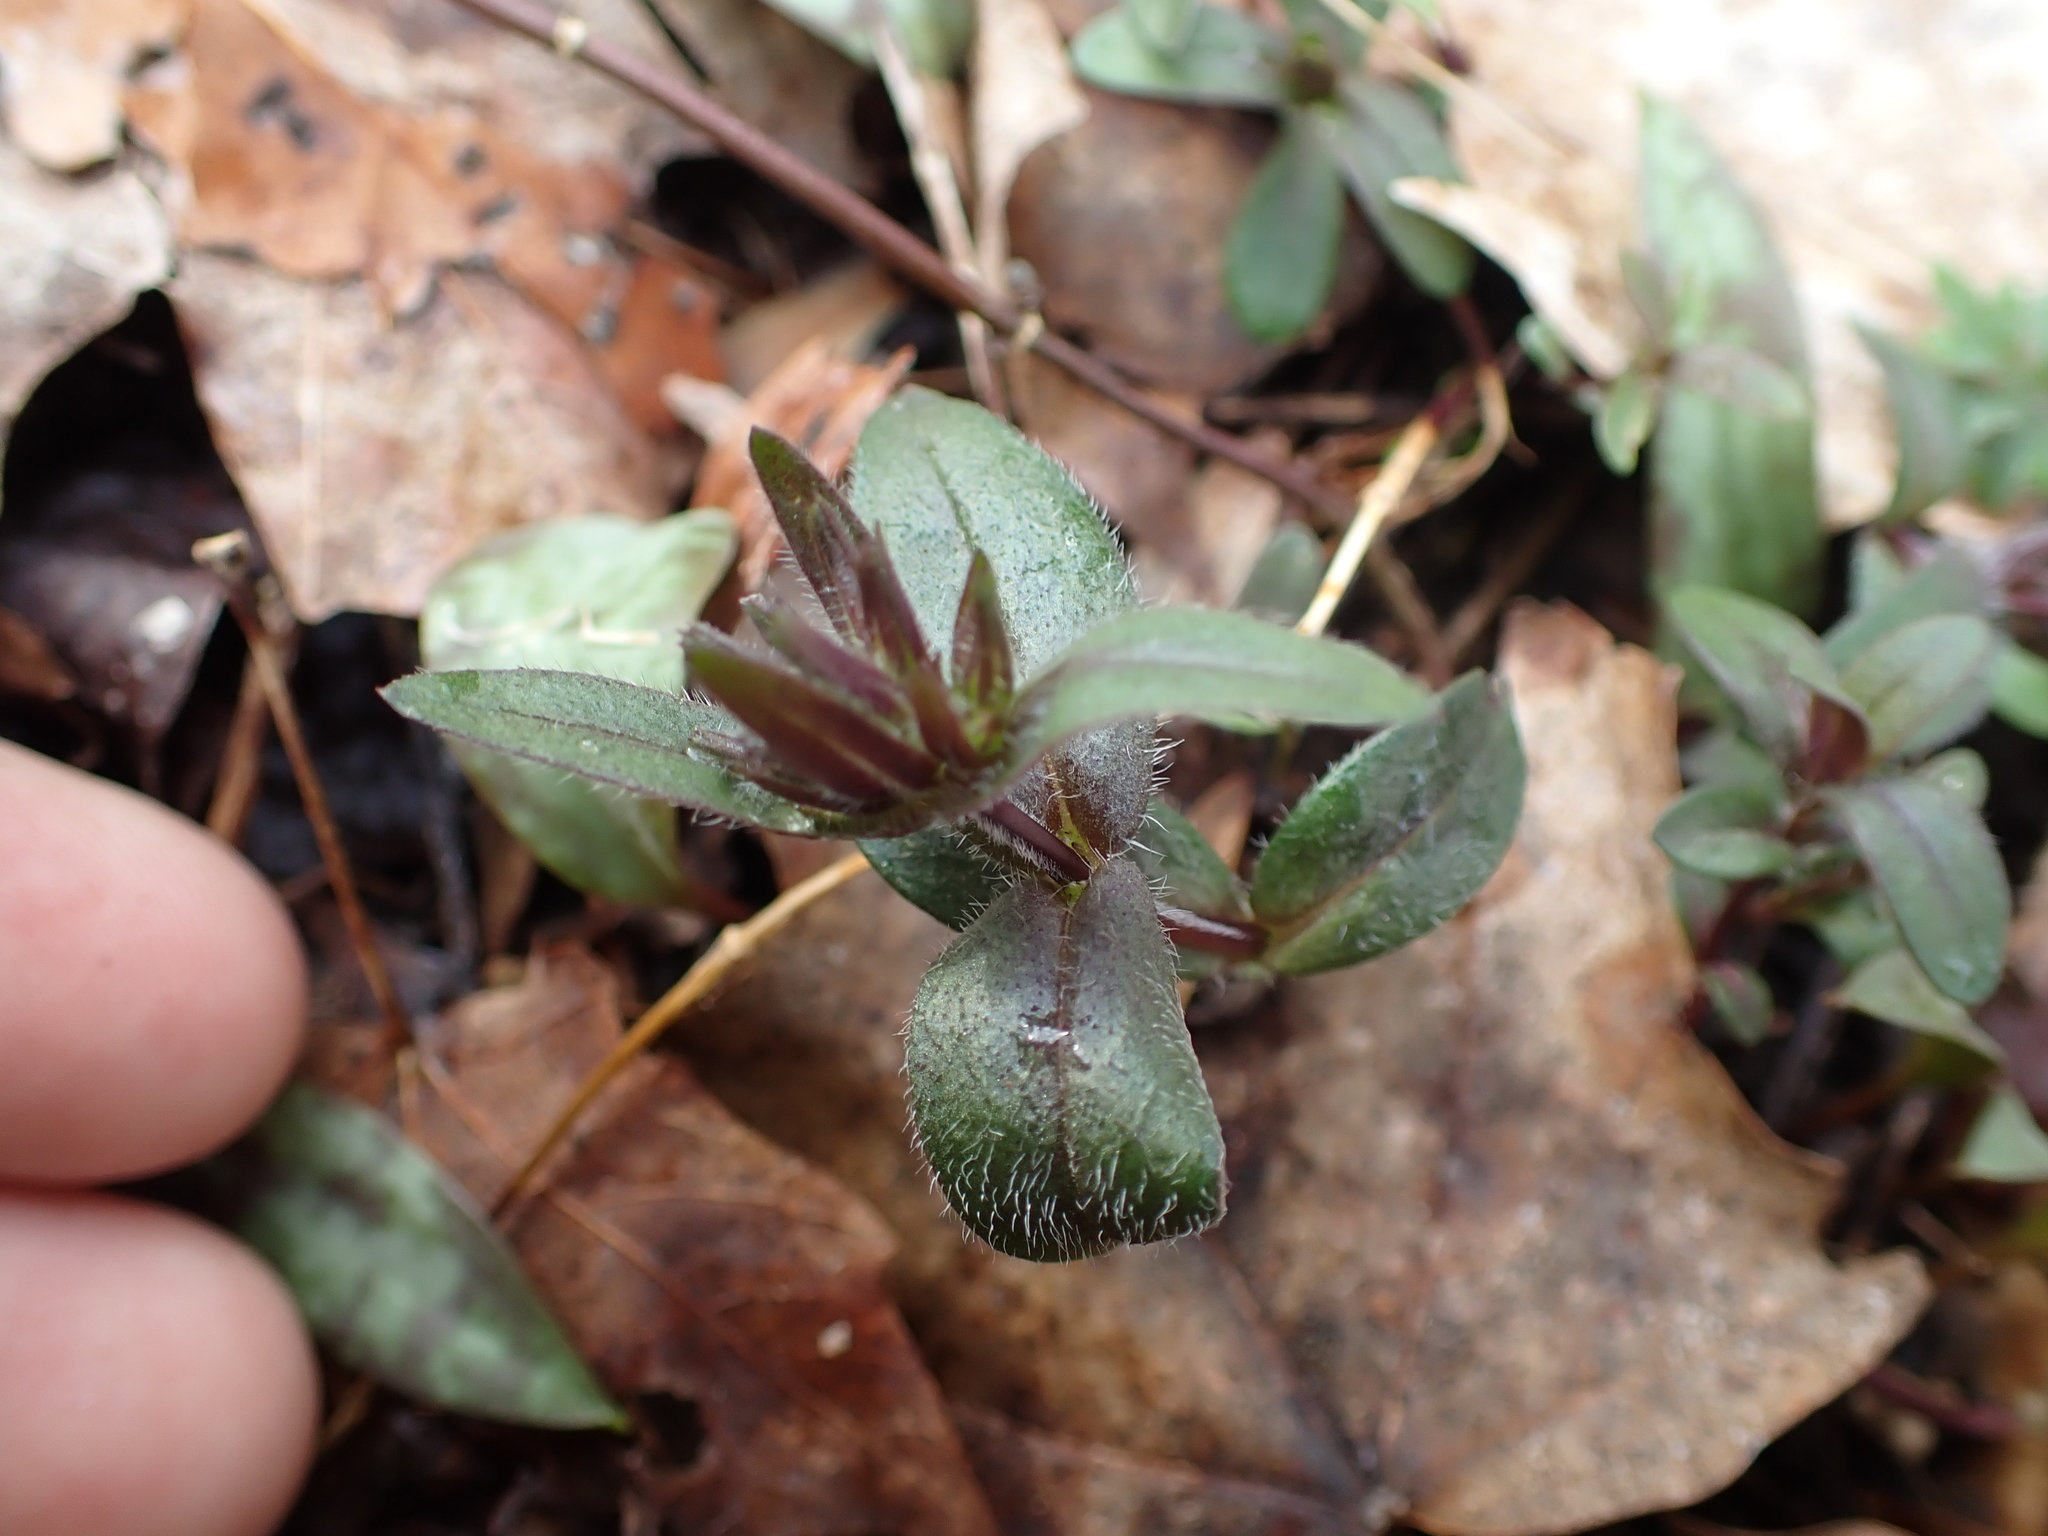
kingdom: Plantae
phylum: Tracheophyta
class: Magnoliopsida
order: Ericales
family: Polemoniaceae
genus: Phlox
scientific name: Phlox divaricata
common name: Blue phlox
